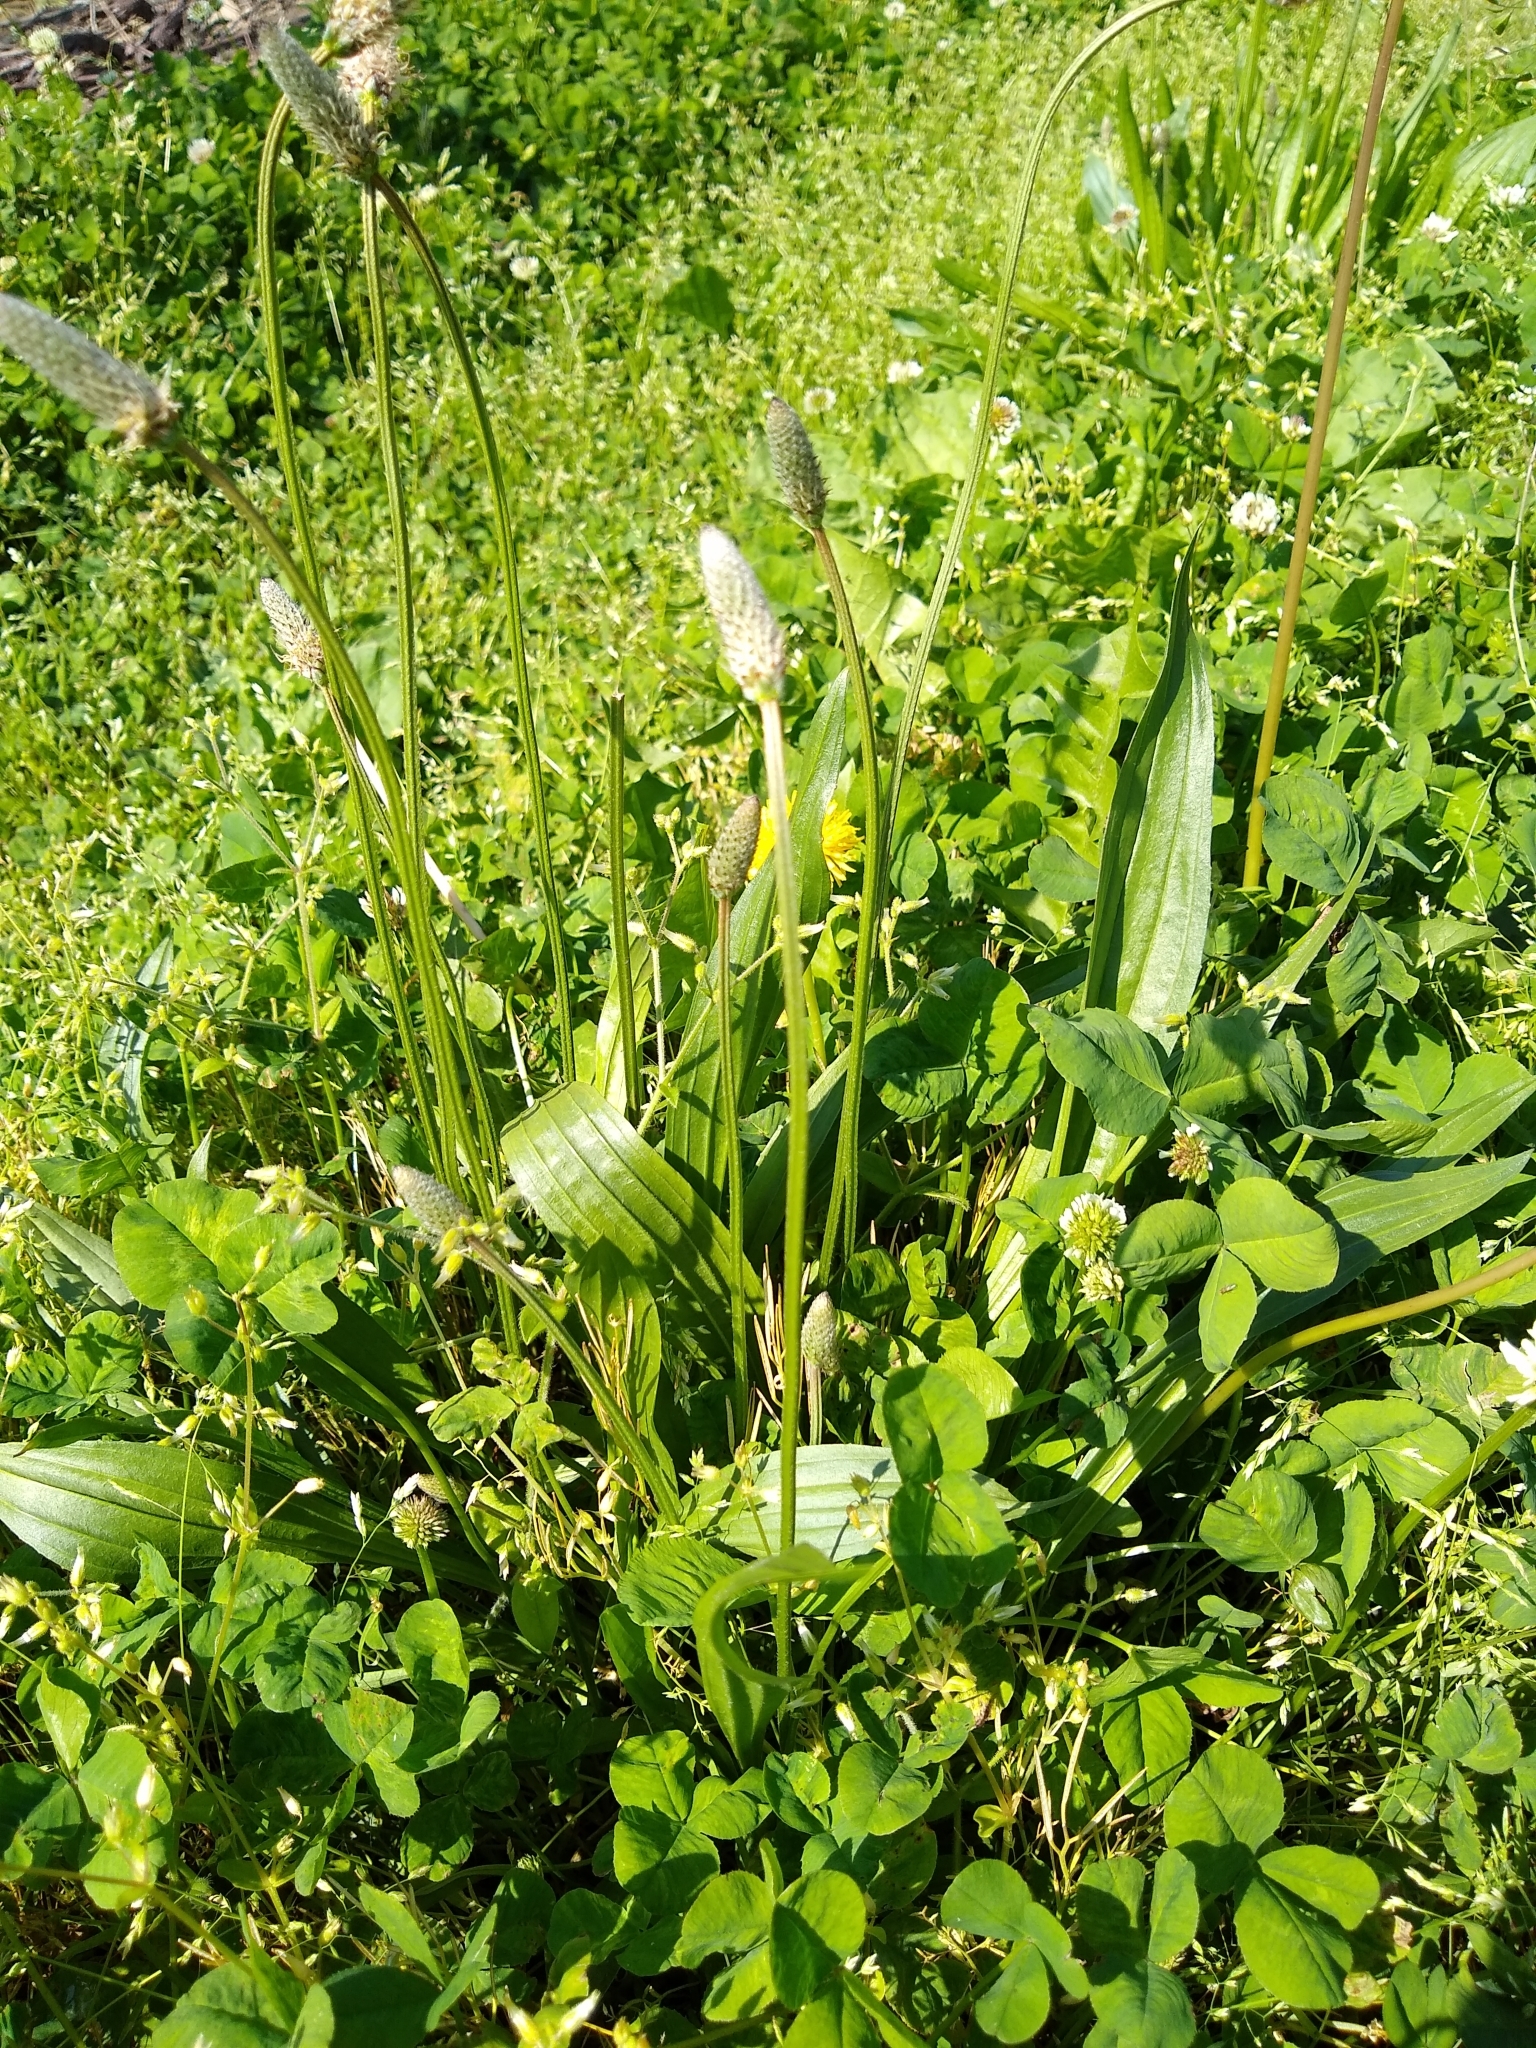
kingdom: Plantae
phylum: Tracheophyta
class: Magnoliopsida
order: Lamiales
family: Plantaginaceae
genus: Plantago
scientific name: Plantago lanceolata
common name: Ribwort plantain
